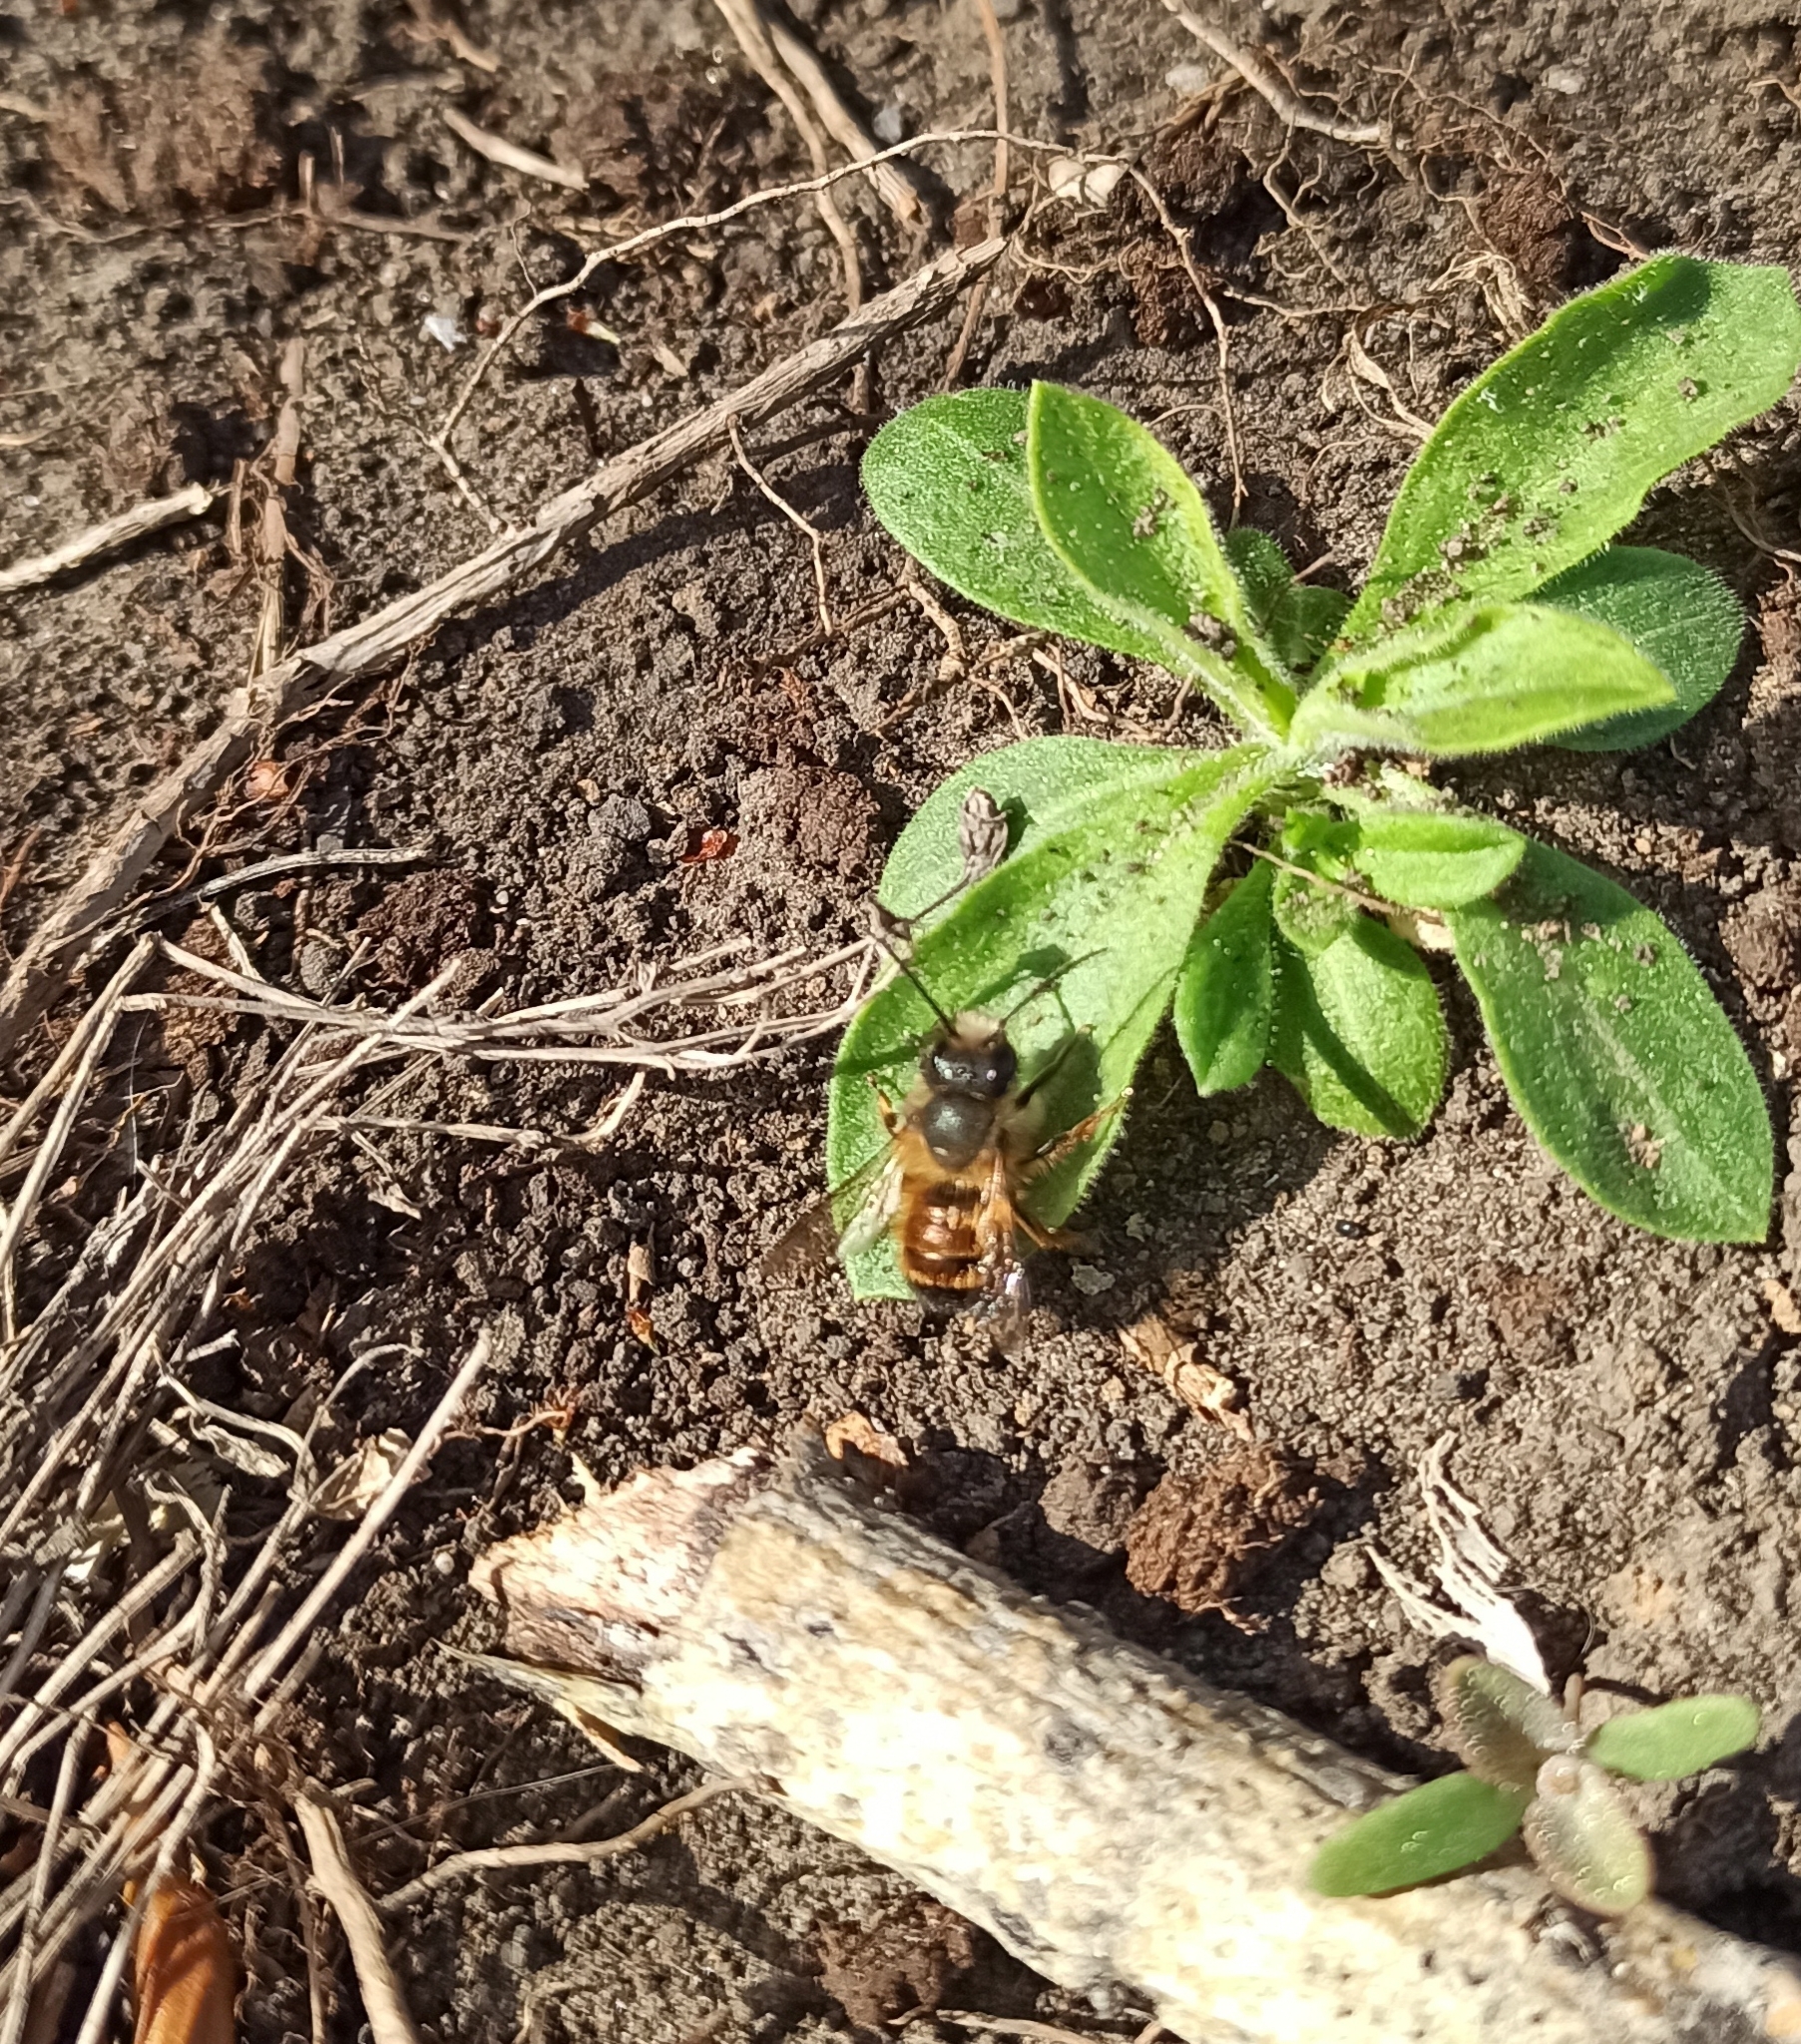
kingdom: Animalia
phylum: Arthropoda
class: Insecta
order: Hymenoptera
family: Megachilidae
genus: Osmia
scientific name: Osmia bicornis
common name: Red mason bee
